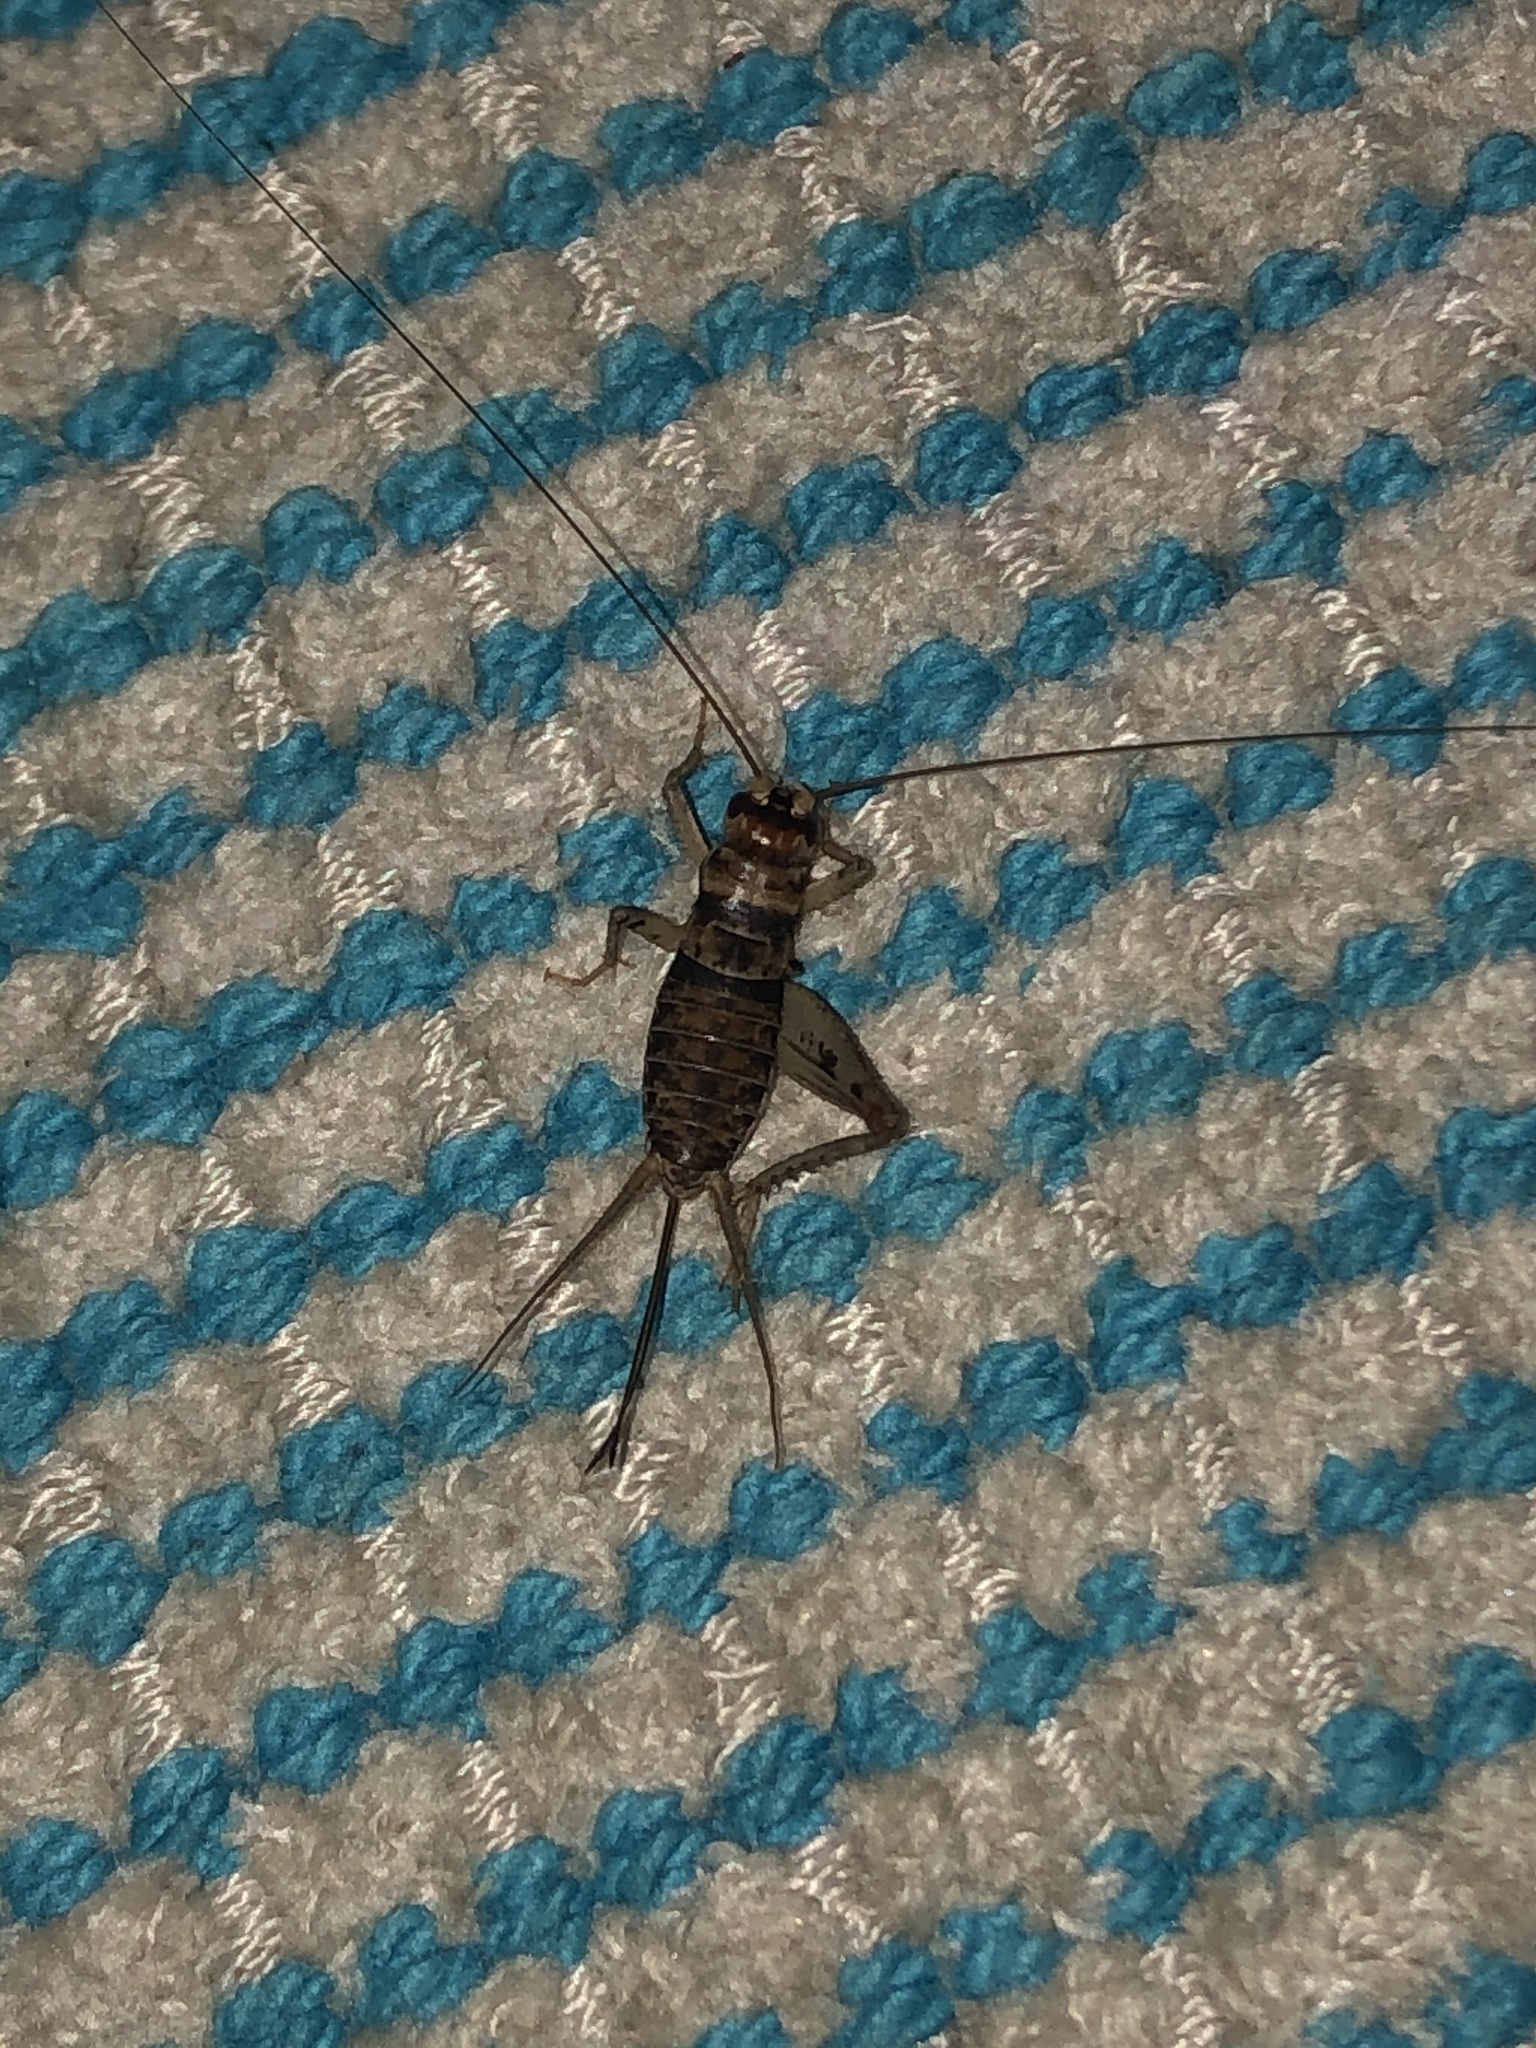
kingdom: Animalia
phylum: Arthropoda
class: Insecta
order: Orthoptera
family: Gryllidae
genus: Gryllodes
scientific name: Gryllodes sigillatus
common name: Tropical house cricket
